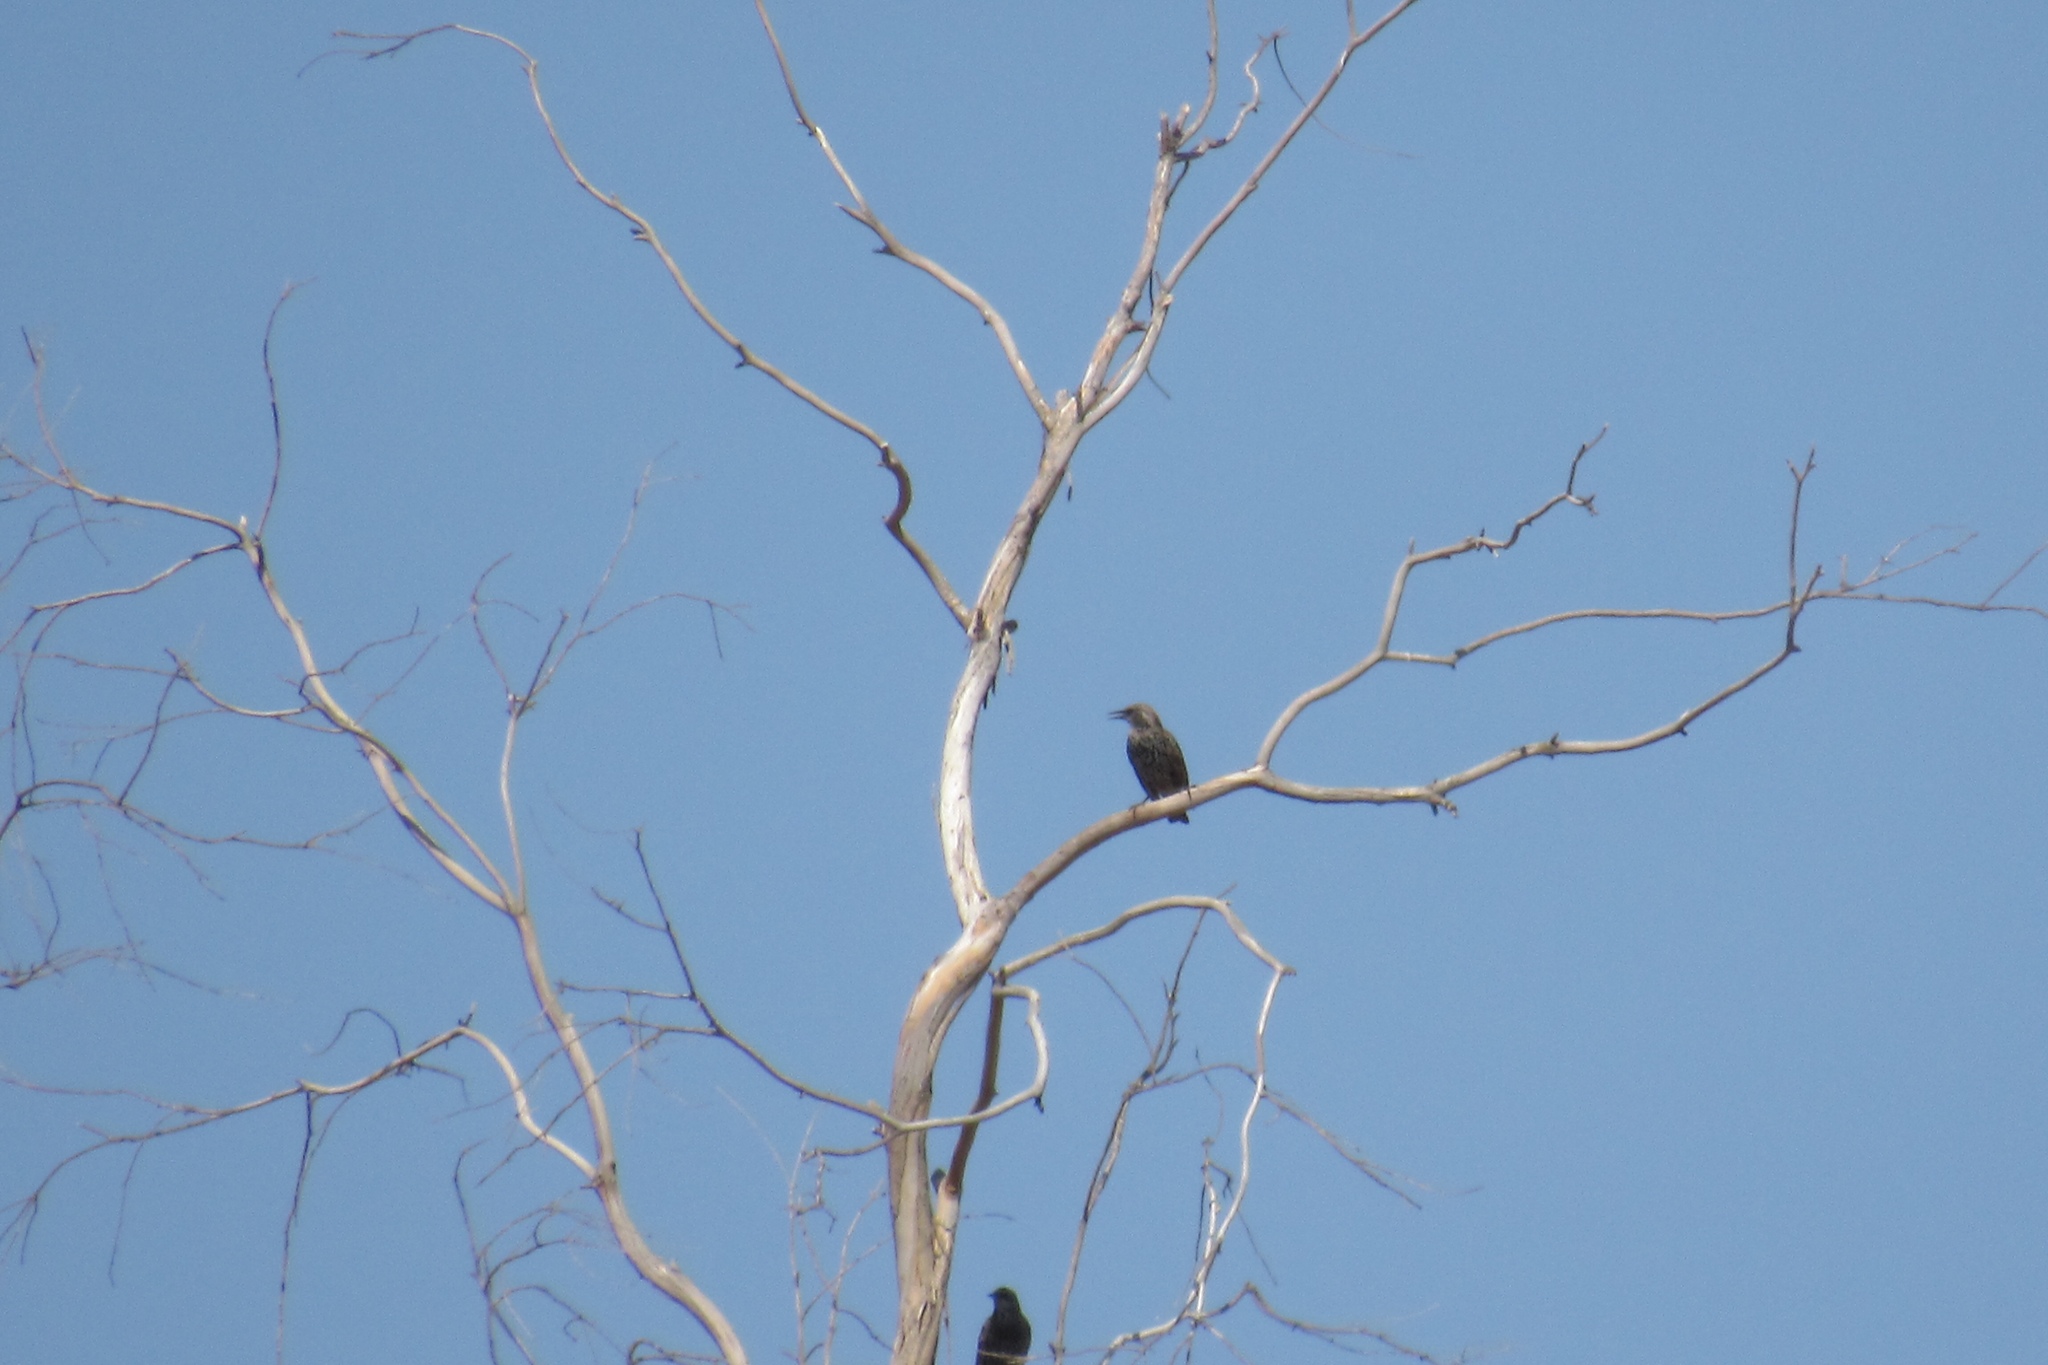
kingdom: Animalia
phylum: Chordata
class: Aves
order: Passeriformes
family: Sturnidae
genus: Sturnus
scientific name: Sturnus vulgaris
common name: Common starling
